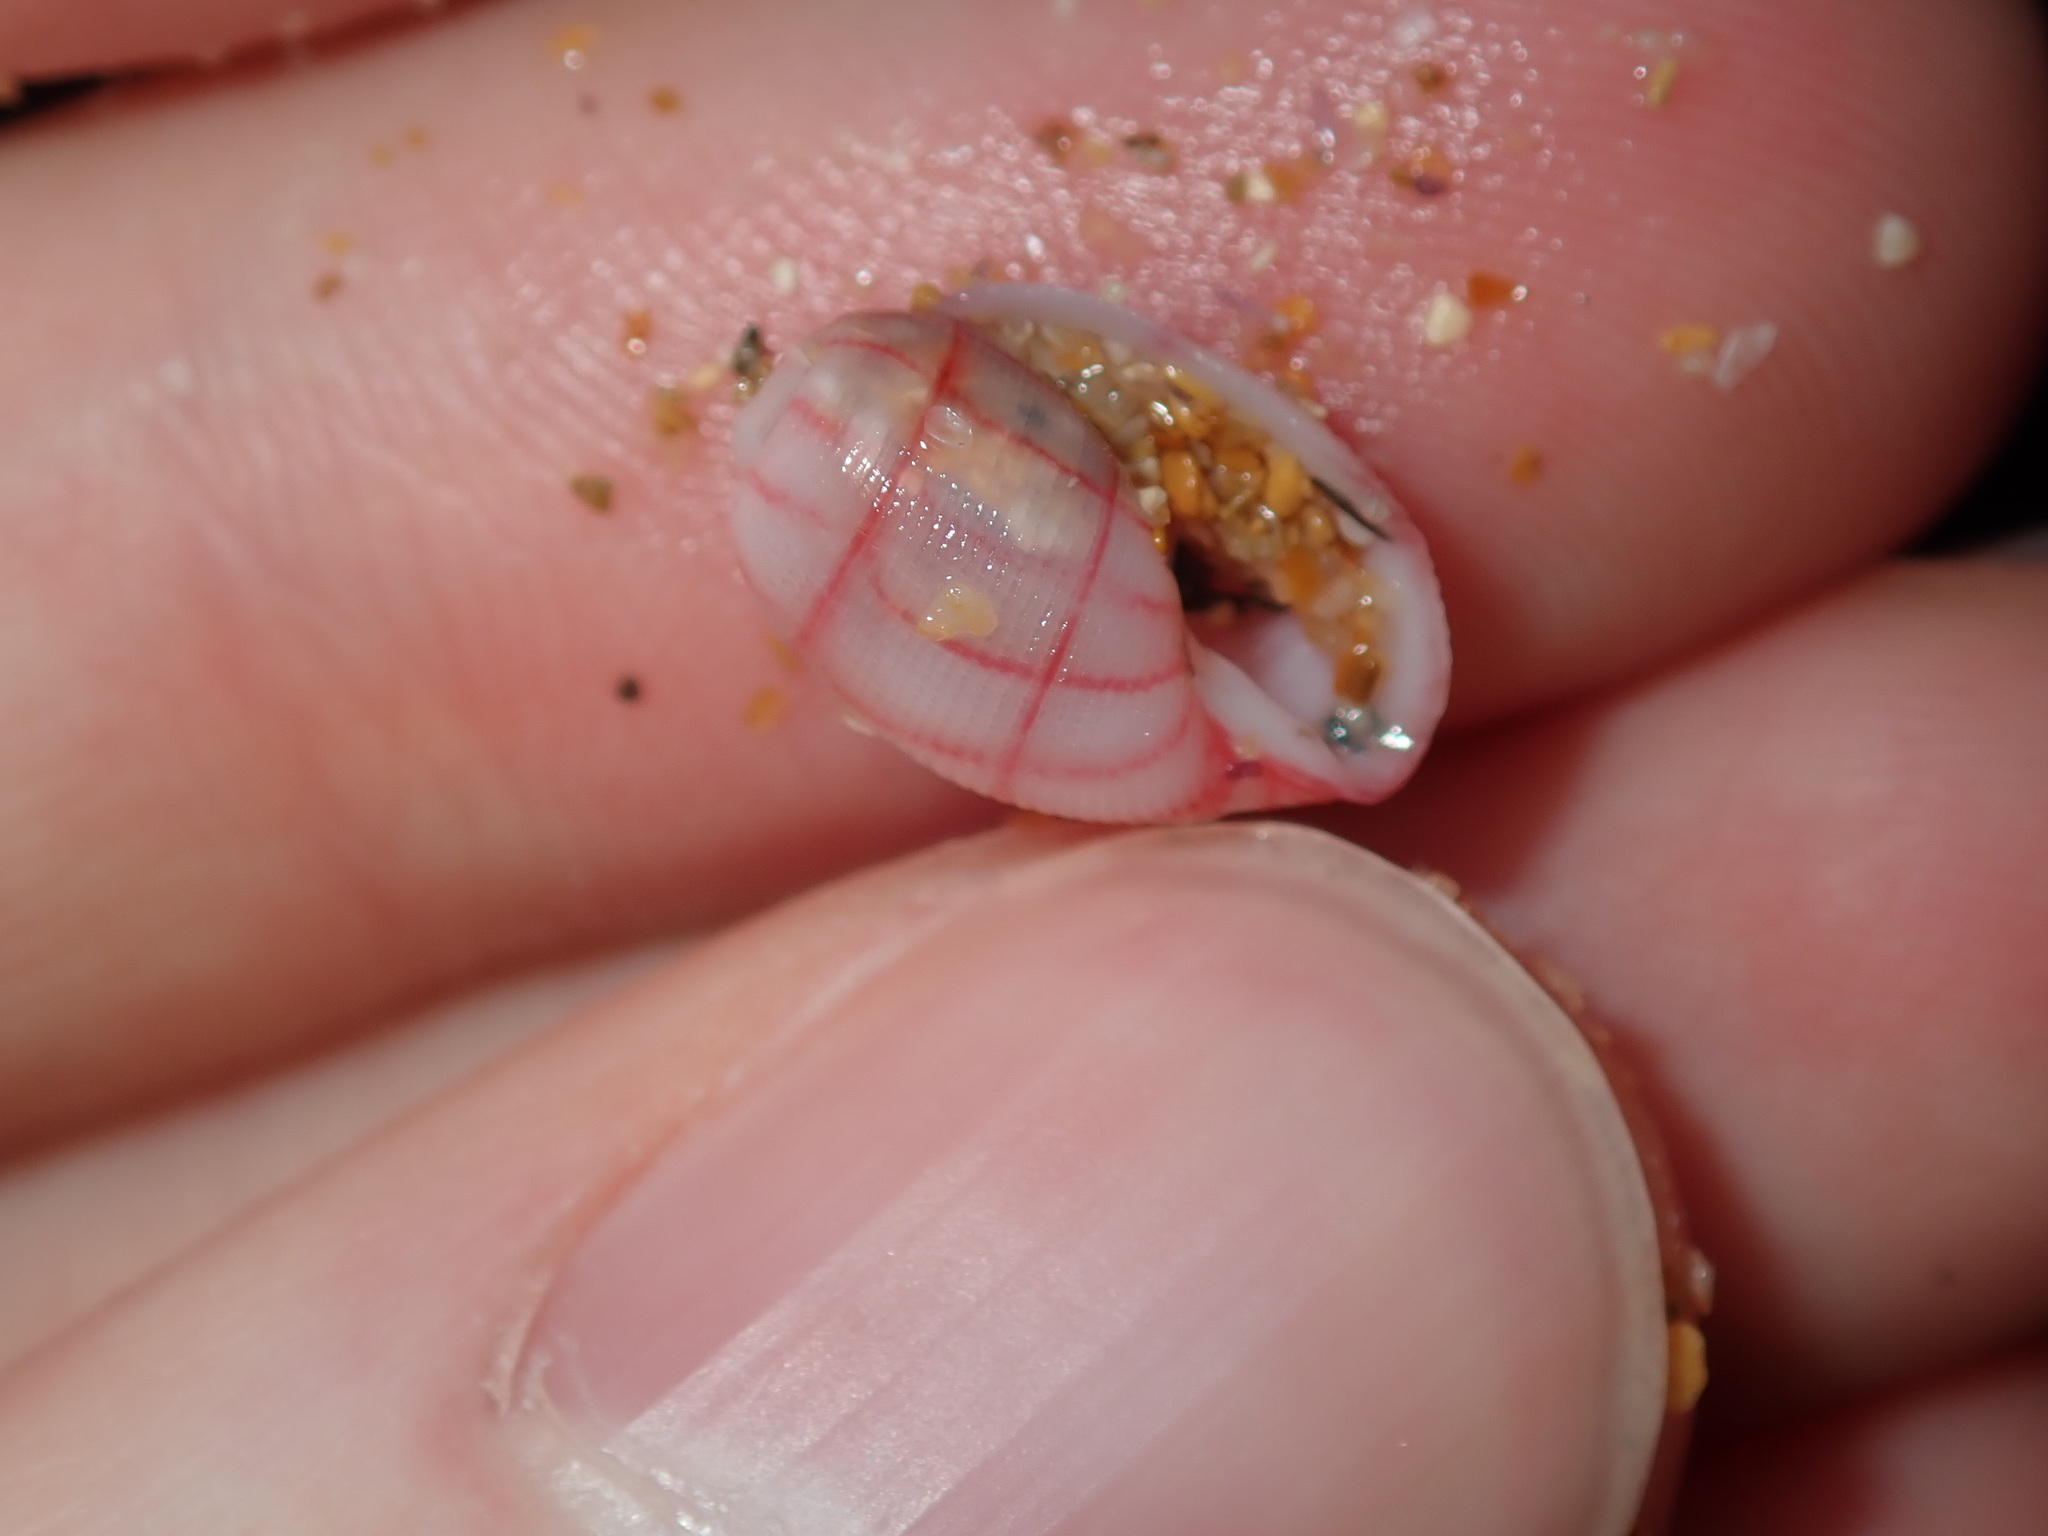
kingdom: Animalia
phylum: Mollusca
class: Gastropoda
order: Cephalaspidea
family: Aplustridae
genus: Bullina
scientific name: Bullina lineata
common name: Lined bubble snail
